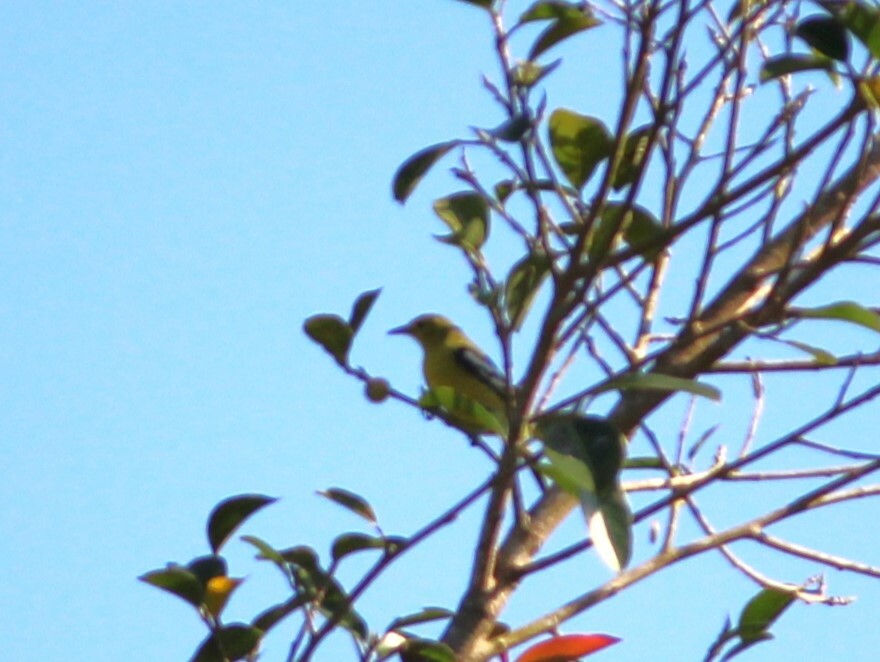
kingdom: Animalia
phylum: Chordata
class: Aves
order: Passeriformes
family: Aegithinidae
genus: Aegithina
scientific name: Aegithina tiphia
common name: Common iora
